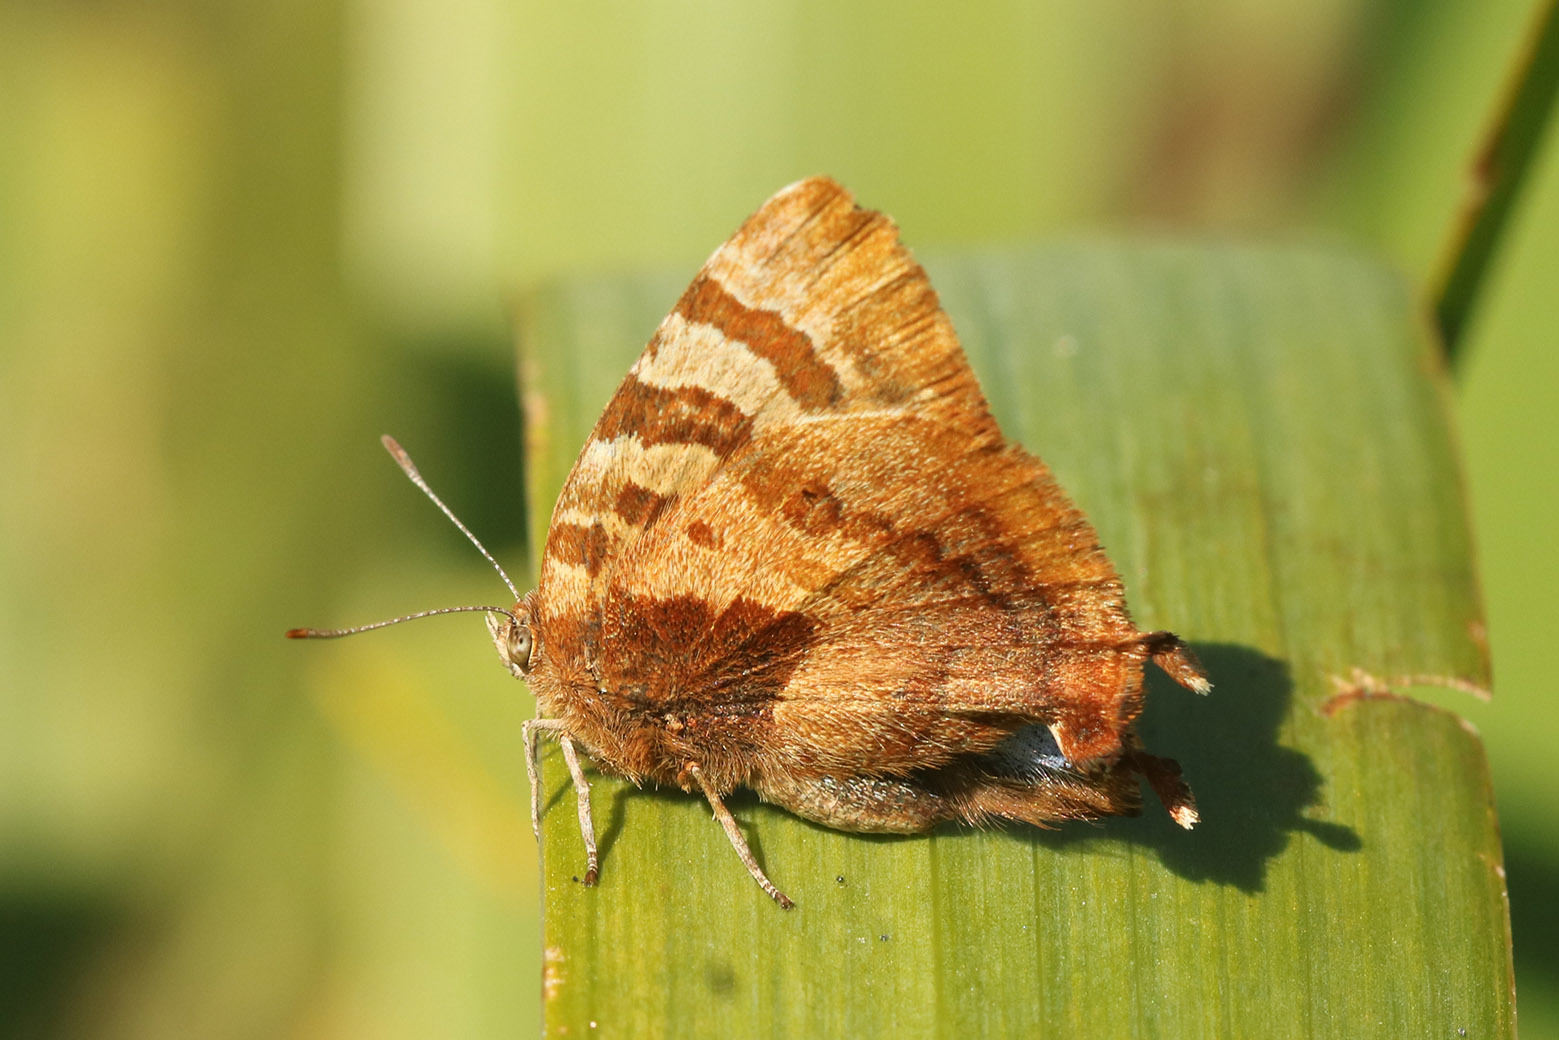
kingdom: Animalia
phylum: Arthropoda
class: Insecta
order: Lepidoptera
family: Lycaenidae
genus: Arawacus
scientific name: Arawacus ellida
